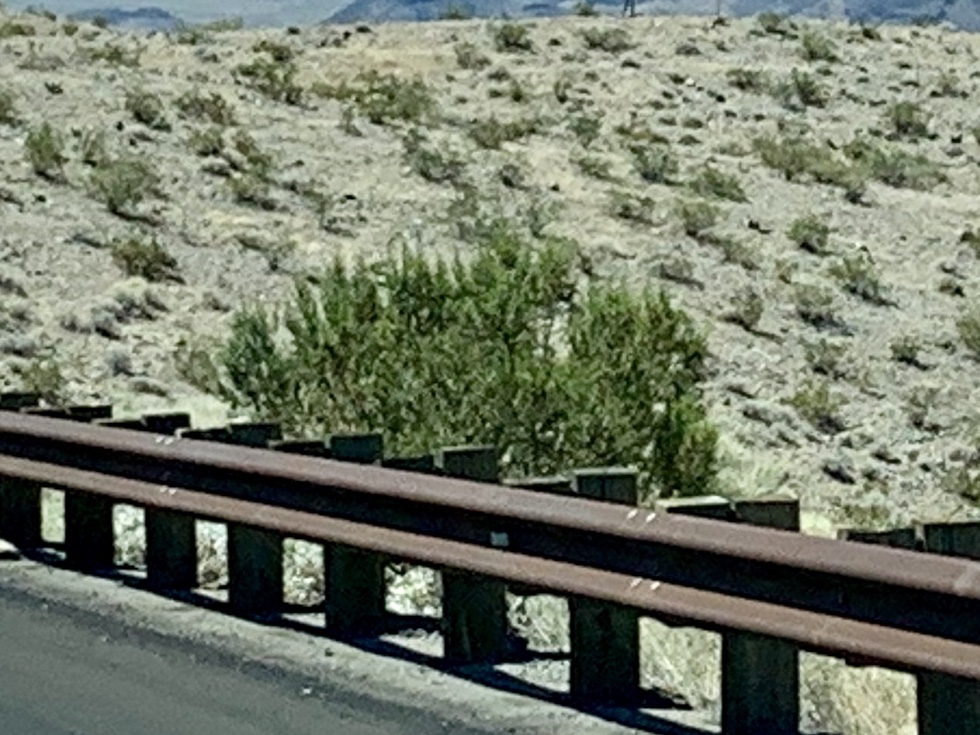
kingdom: Plantae
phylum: Tracheophyta
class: Magnoliopsida
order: Zygophyllales
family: Zygophyllaceae
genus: Larrea
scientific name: Larrea tridentata
